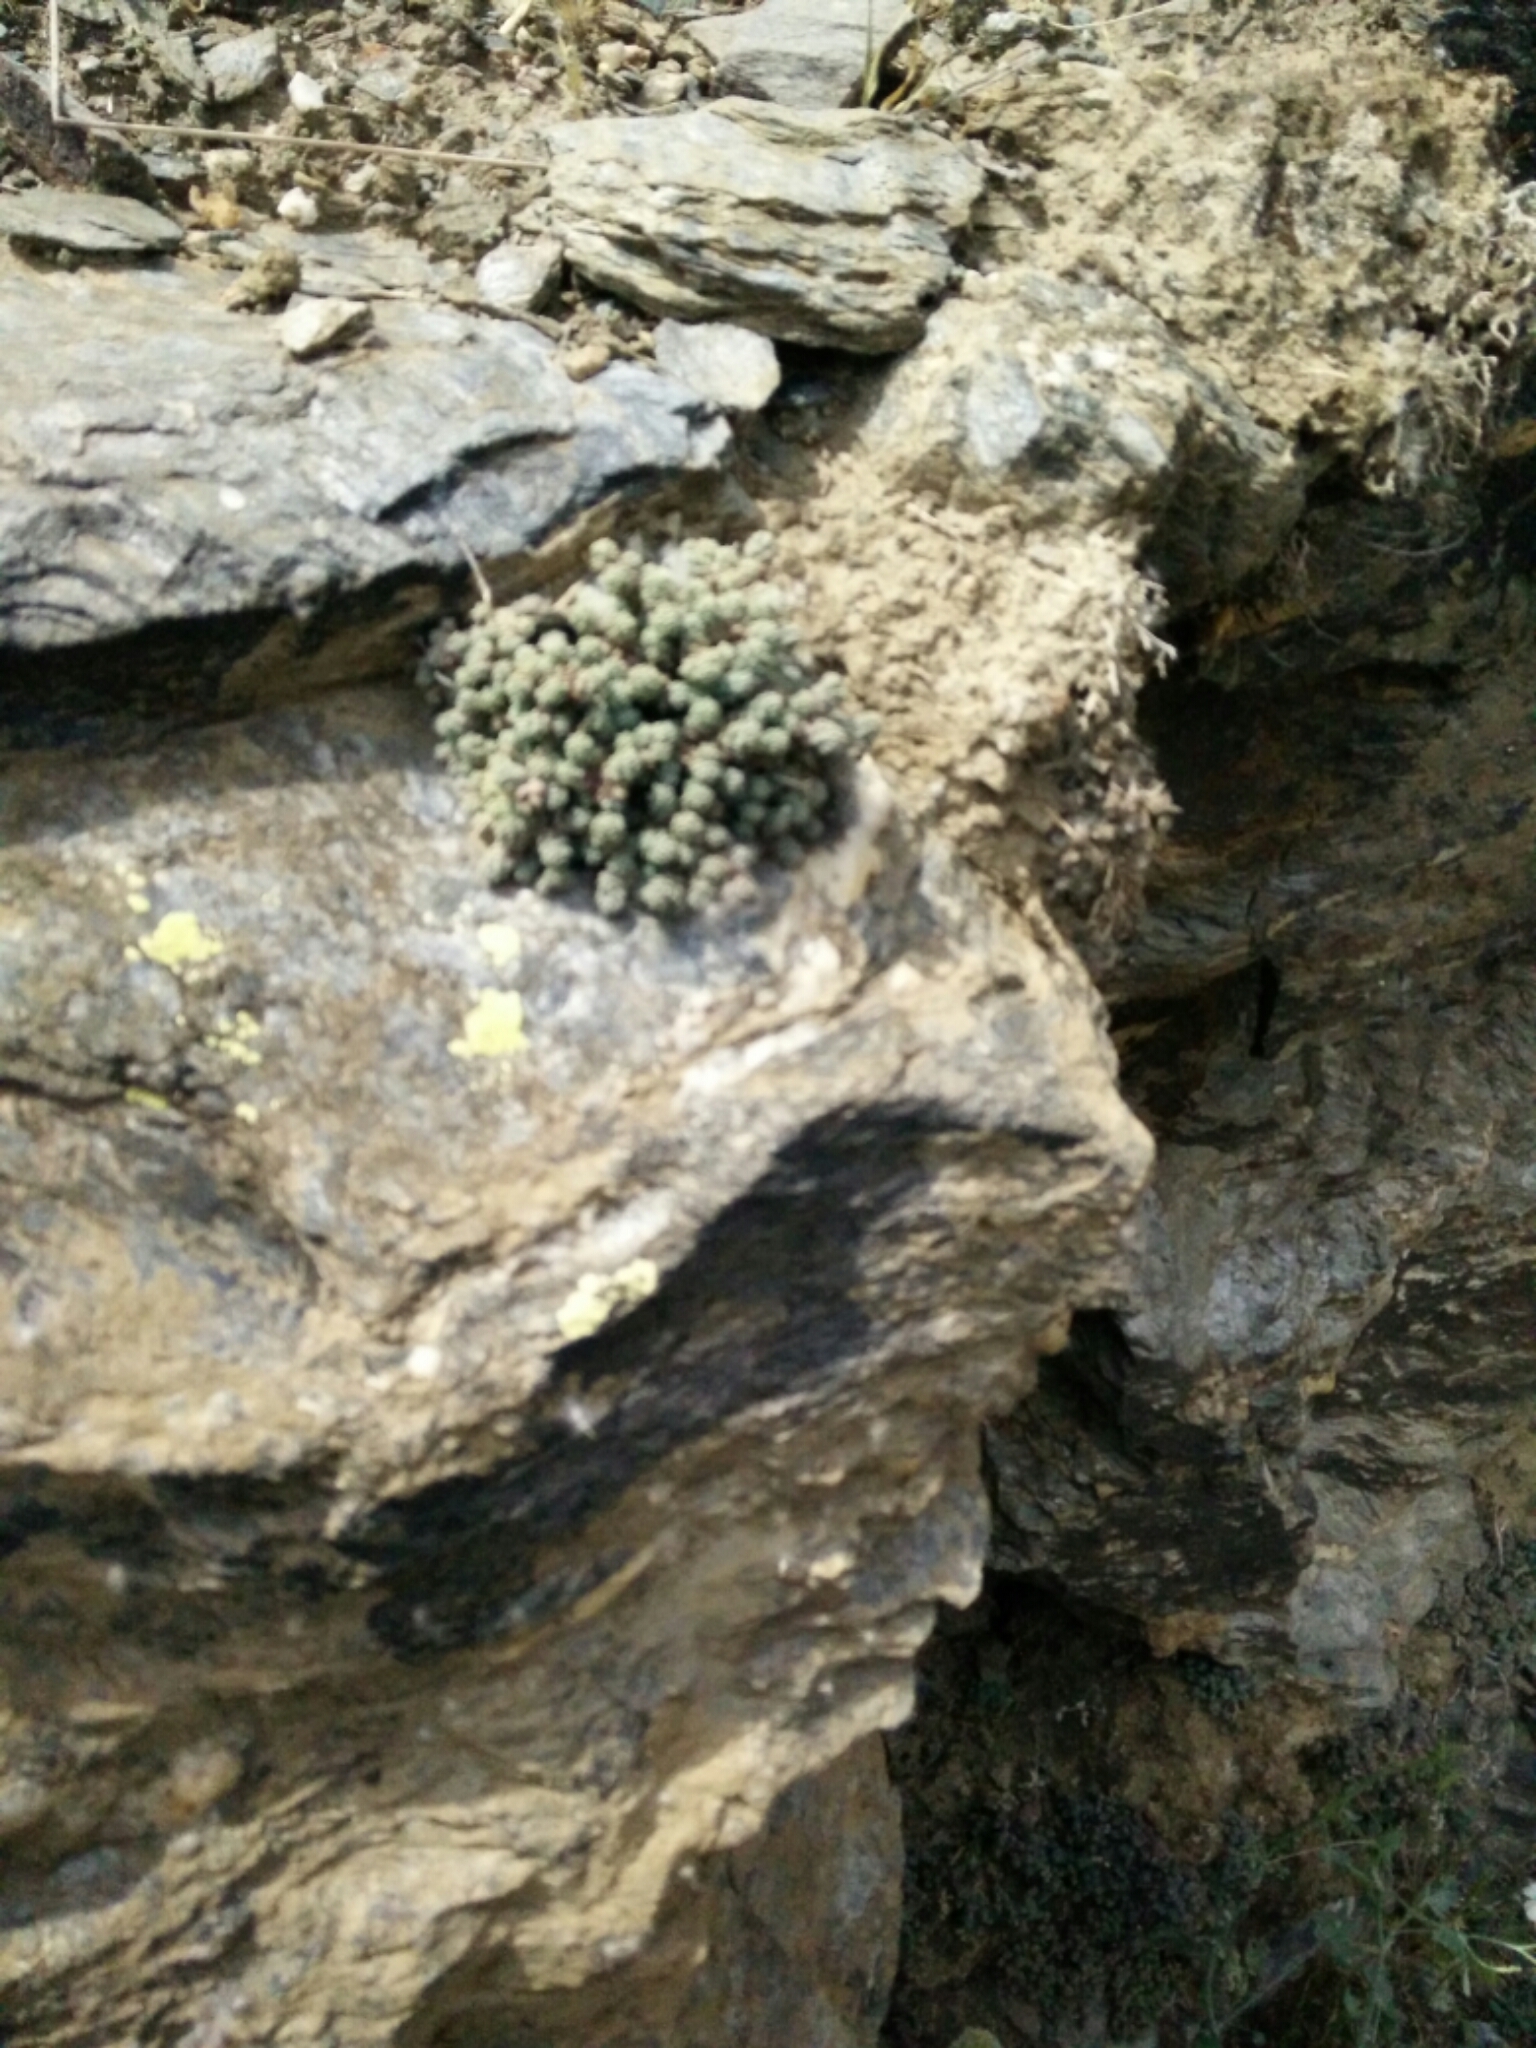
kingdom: Plantae
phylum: Tracheophyta
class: Magnoliopsida
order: Saxifragales
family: Crassulaceae
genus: Sedum
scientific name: Sedum
